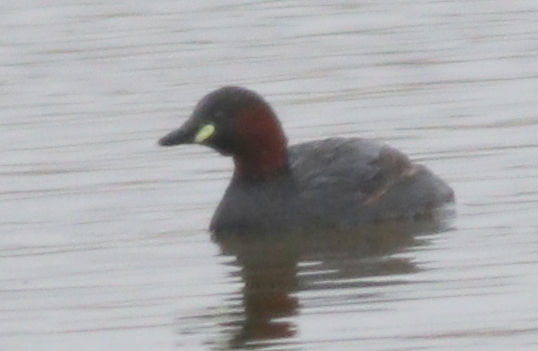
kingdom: Animalia
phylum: Chordata
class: Aves
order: Podicipediformes
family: Podicipedidae
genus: Tachybaptus
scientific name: Tachybaptus ruficollis
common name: Little grebe
